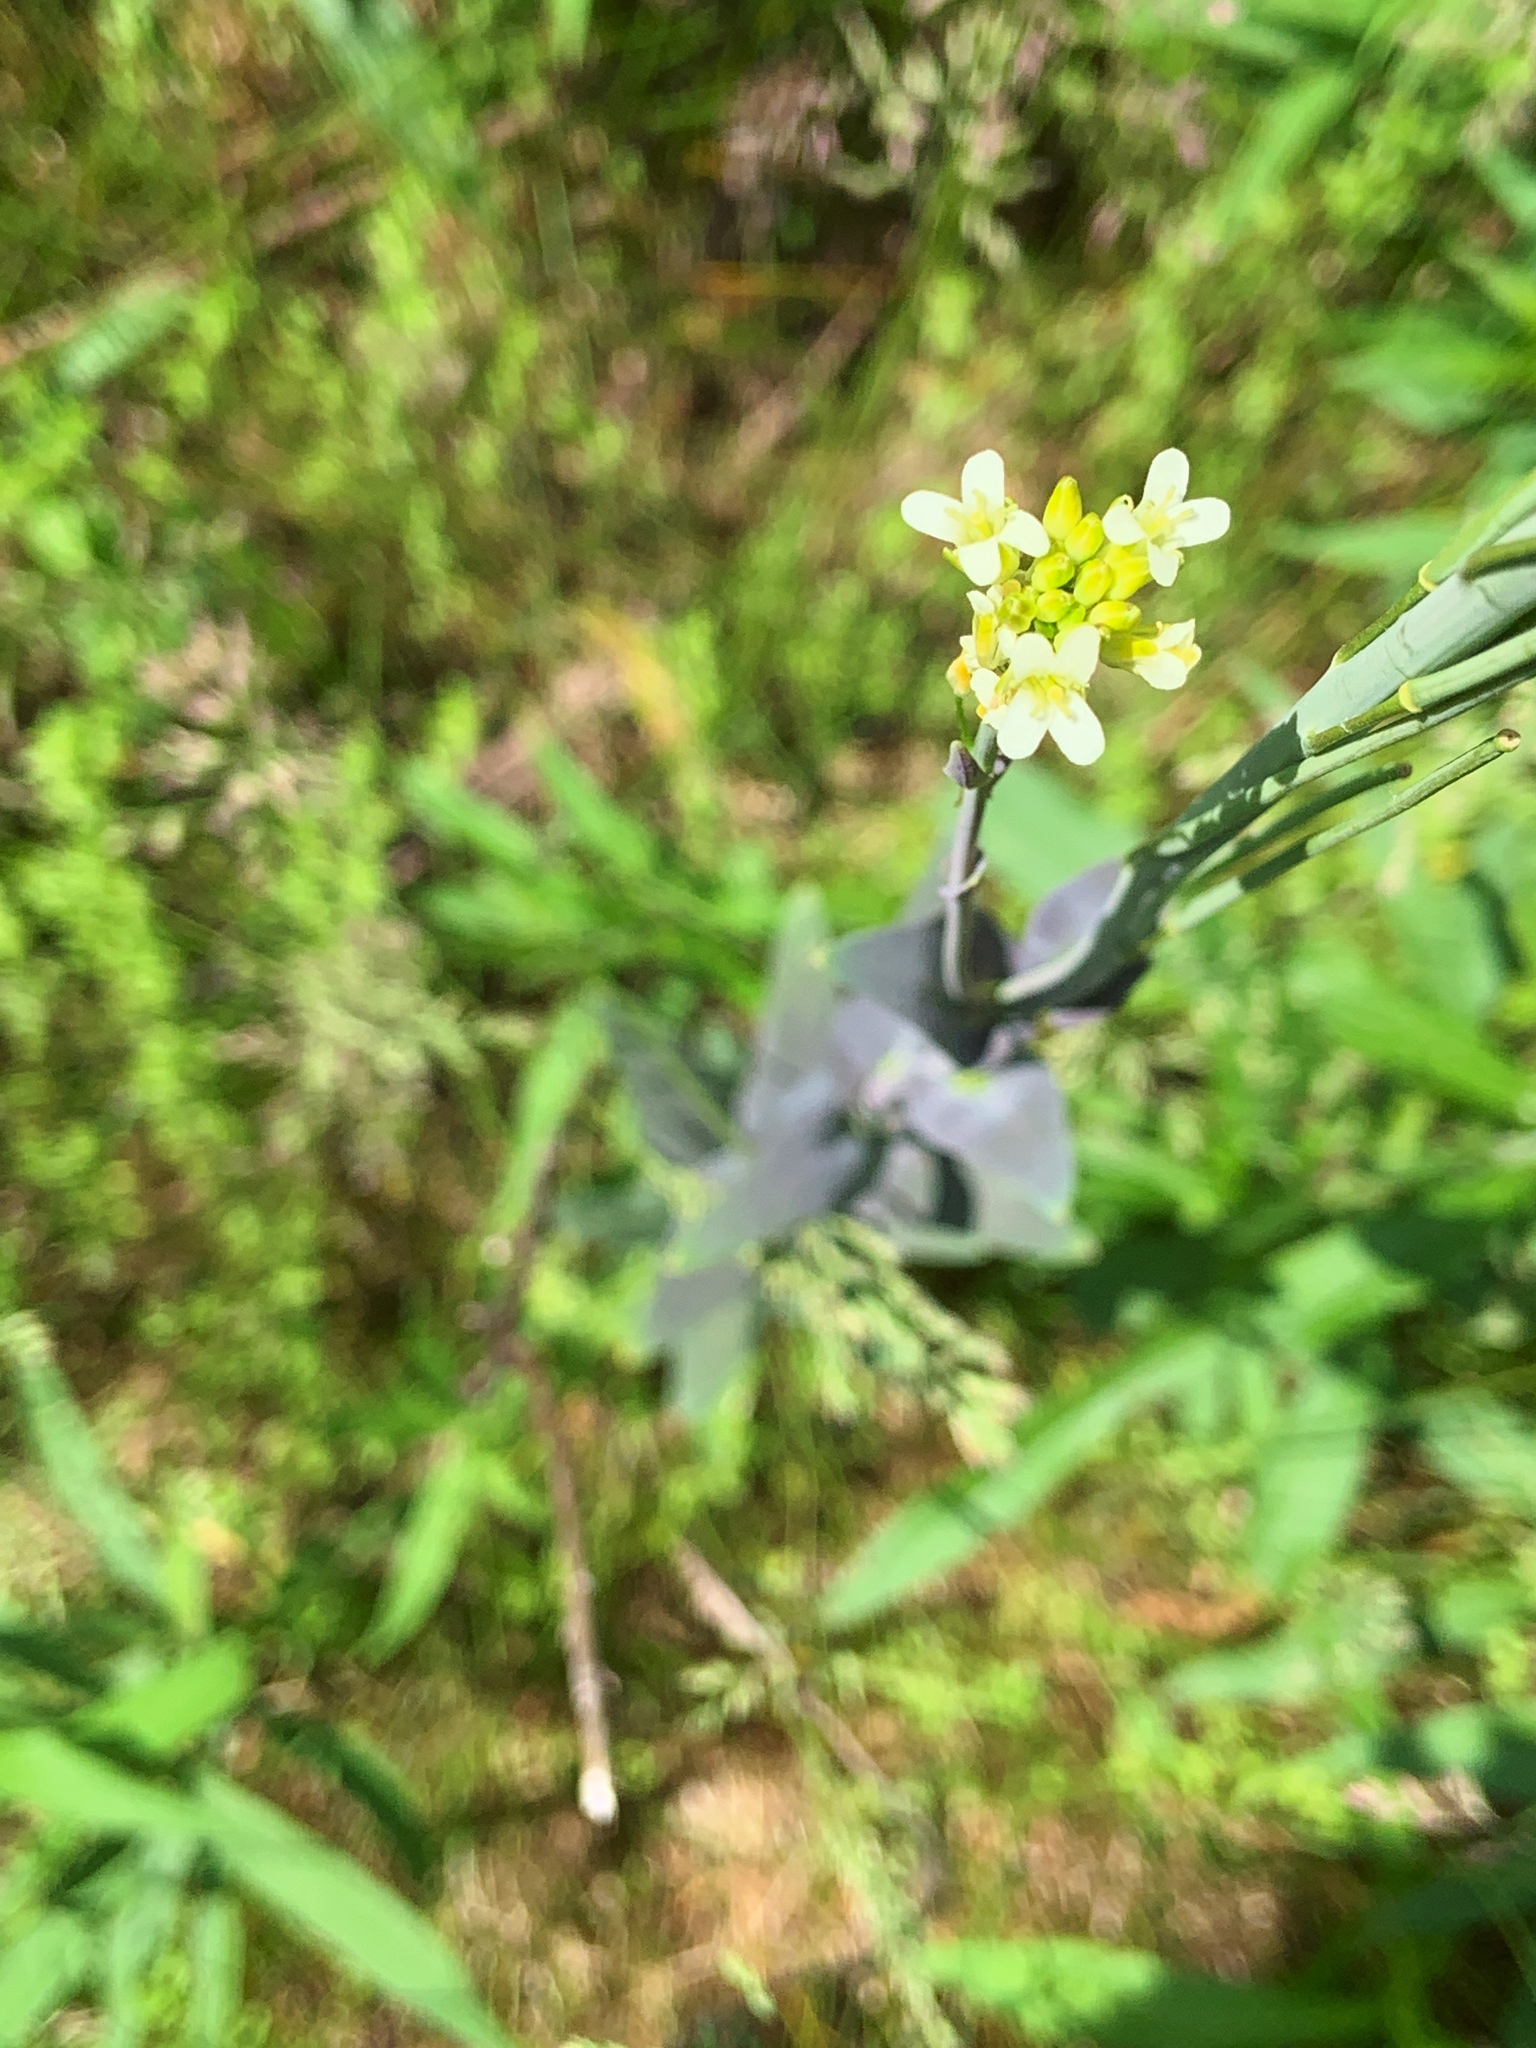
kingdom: Plantae
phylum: Tracheophyta
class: Magnoliopsida
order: Brassicales
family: Brassicaceae
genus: Turritis
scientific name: Turritis glabra
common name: Tower rockcress
